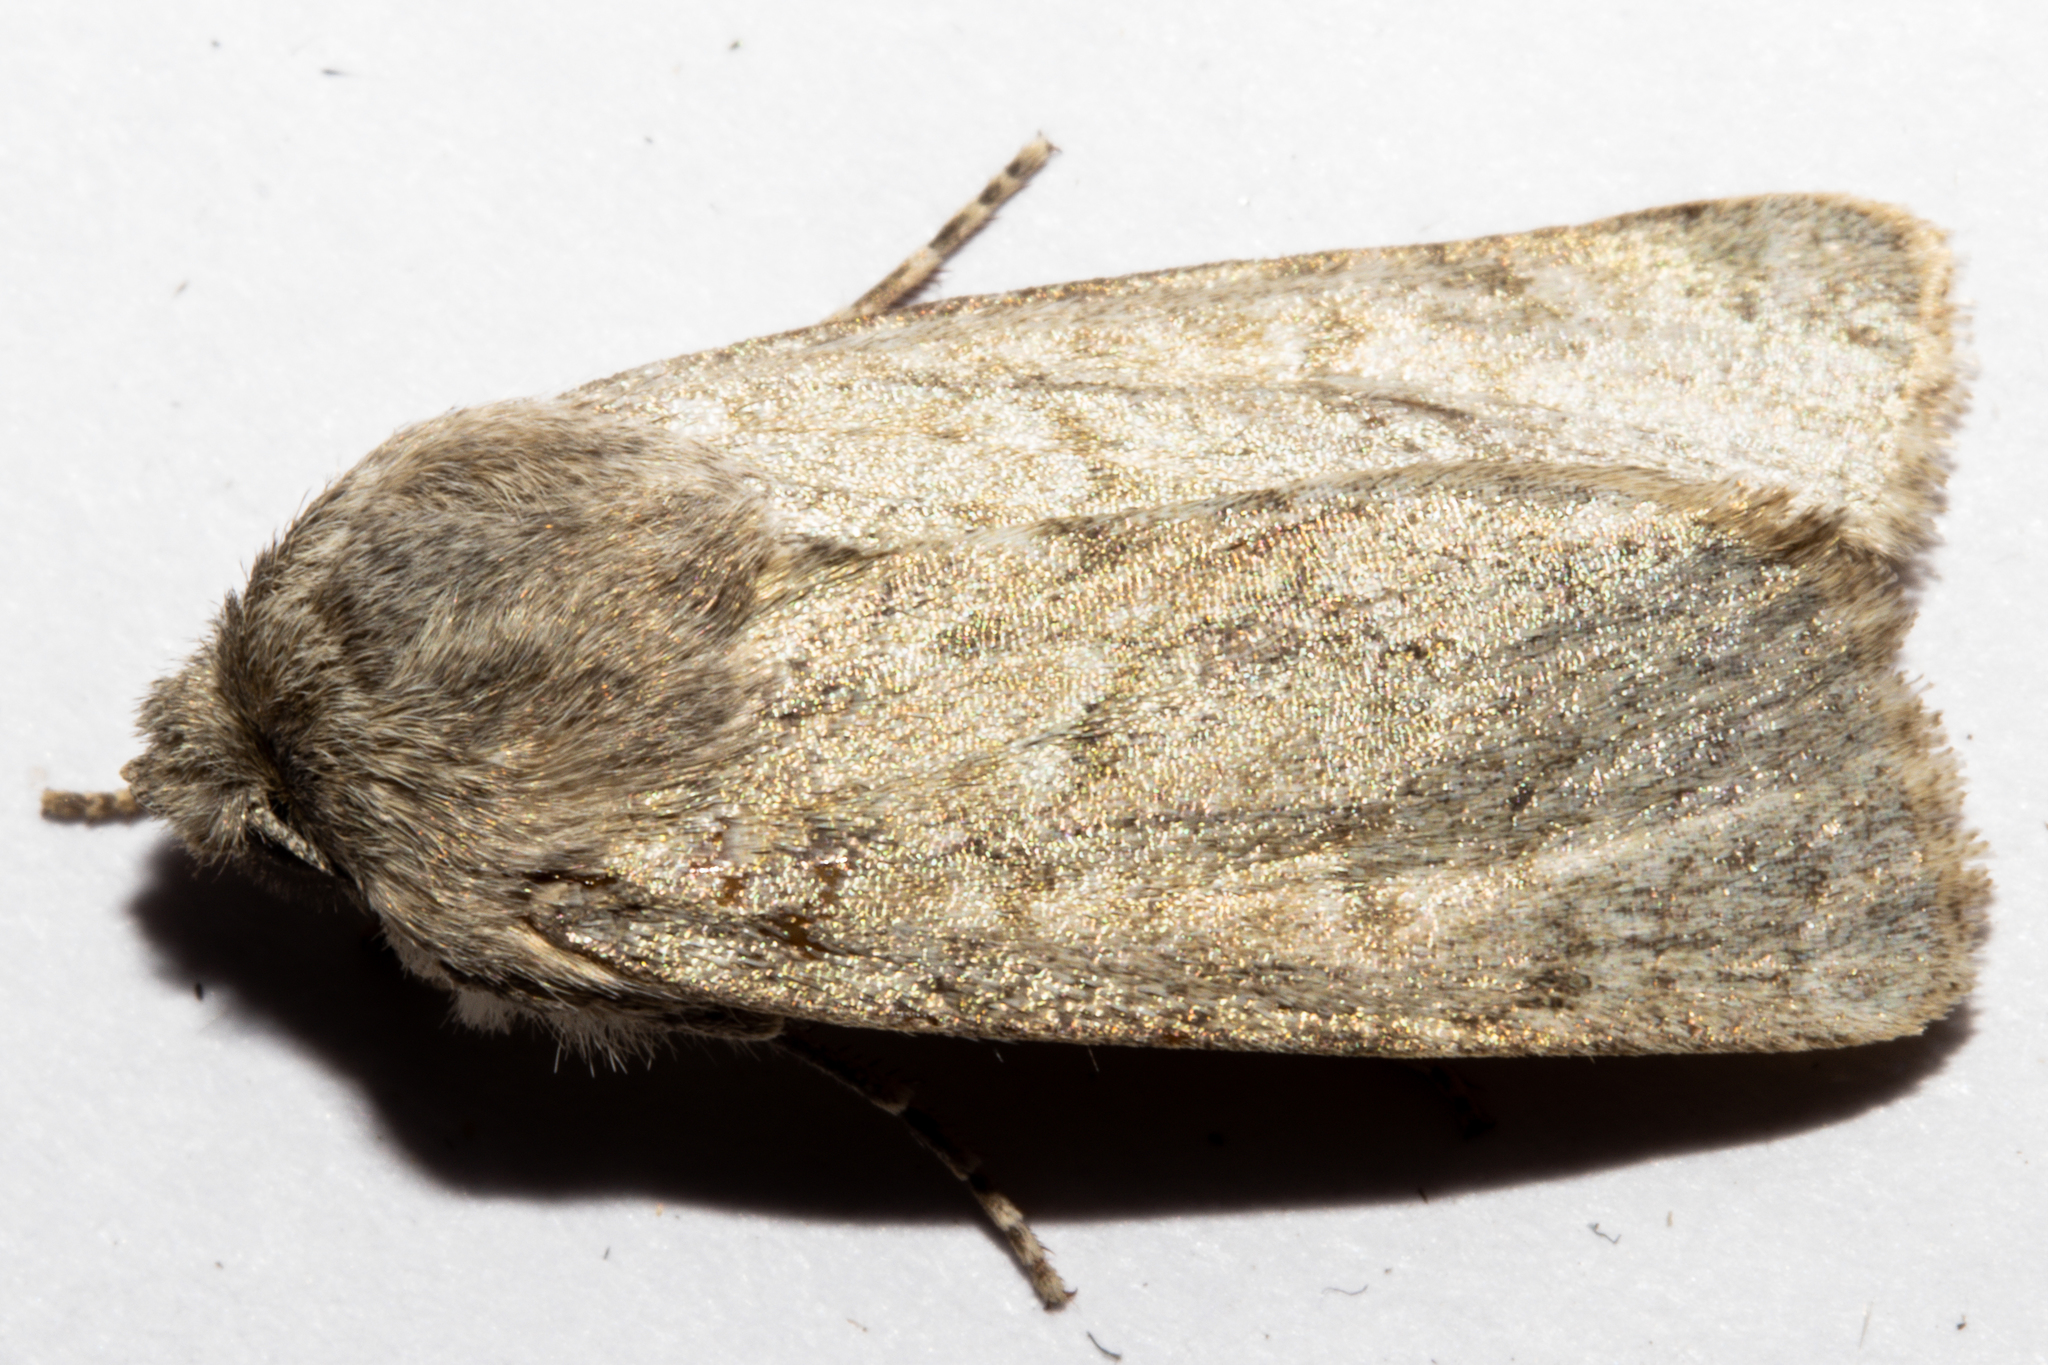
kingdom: Animalia
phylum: Arthropoda
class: Insecta
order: Lepidoptera
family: Noctuidae
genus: Physetica
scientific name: Physetica caerulea
